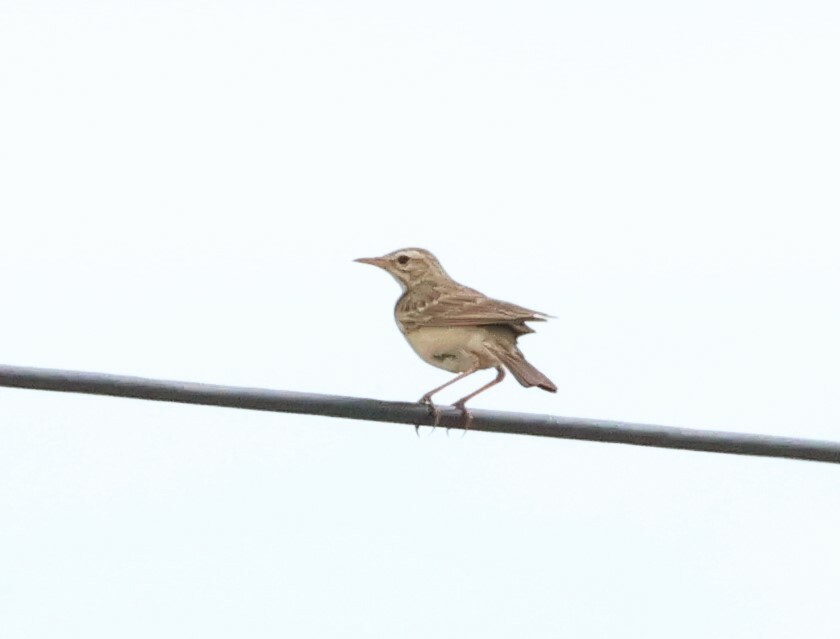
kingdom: Animalia
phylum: Chordata
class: Aves
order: Passeriformes
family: Motacillidae
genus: Anthus
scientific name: Anthus cinnamomeus
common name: African pipit
